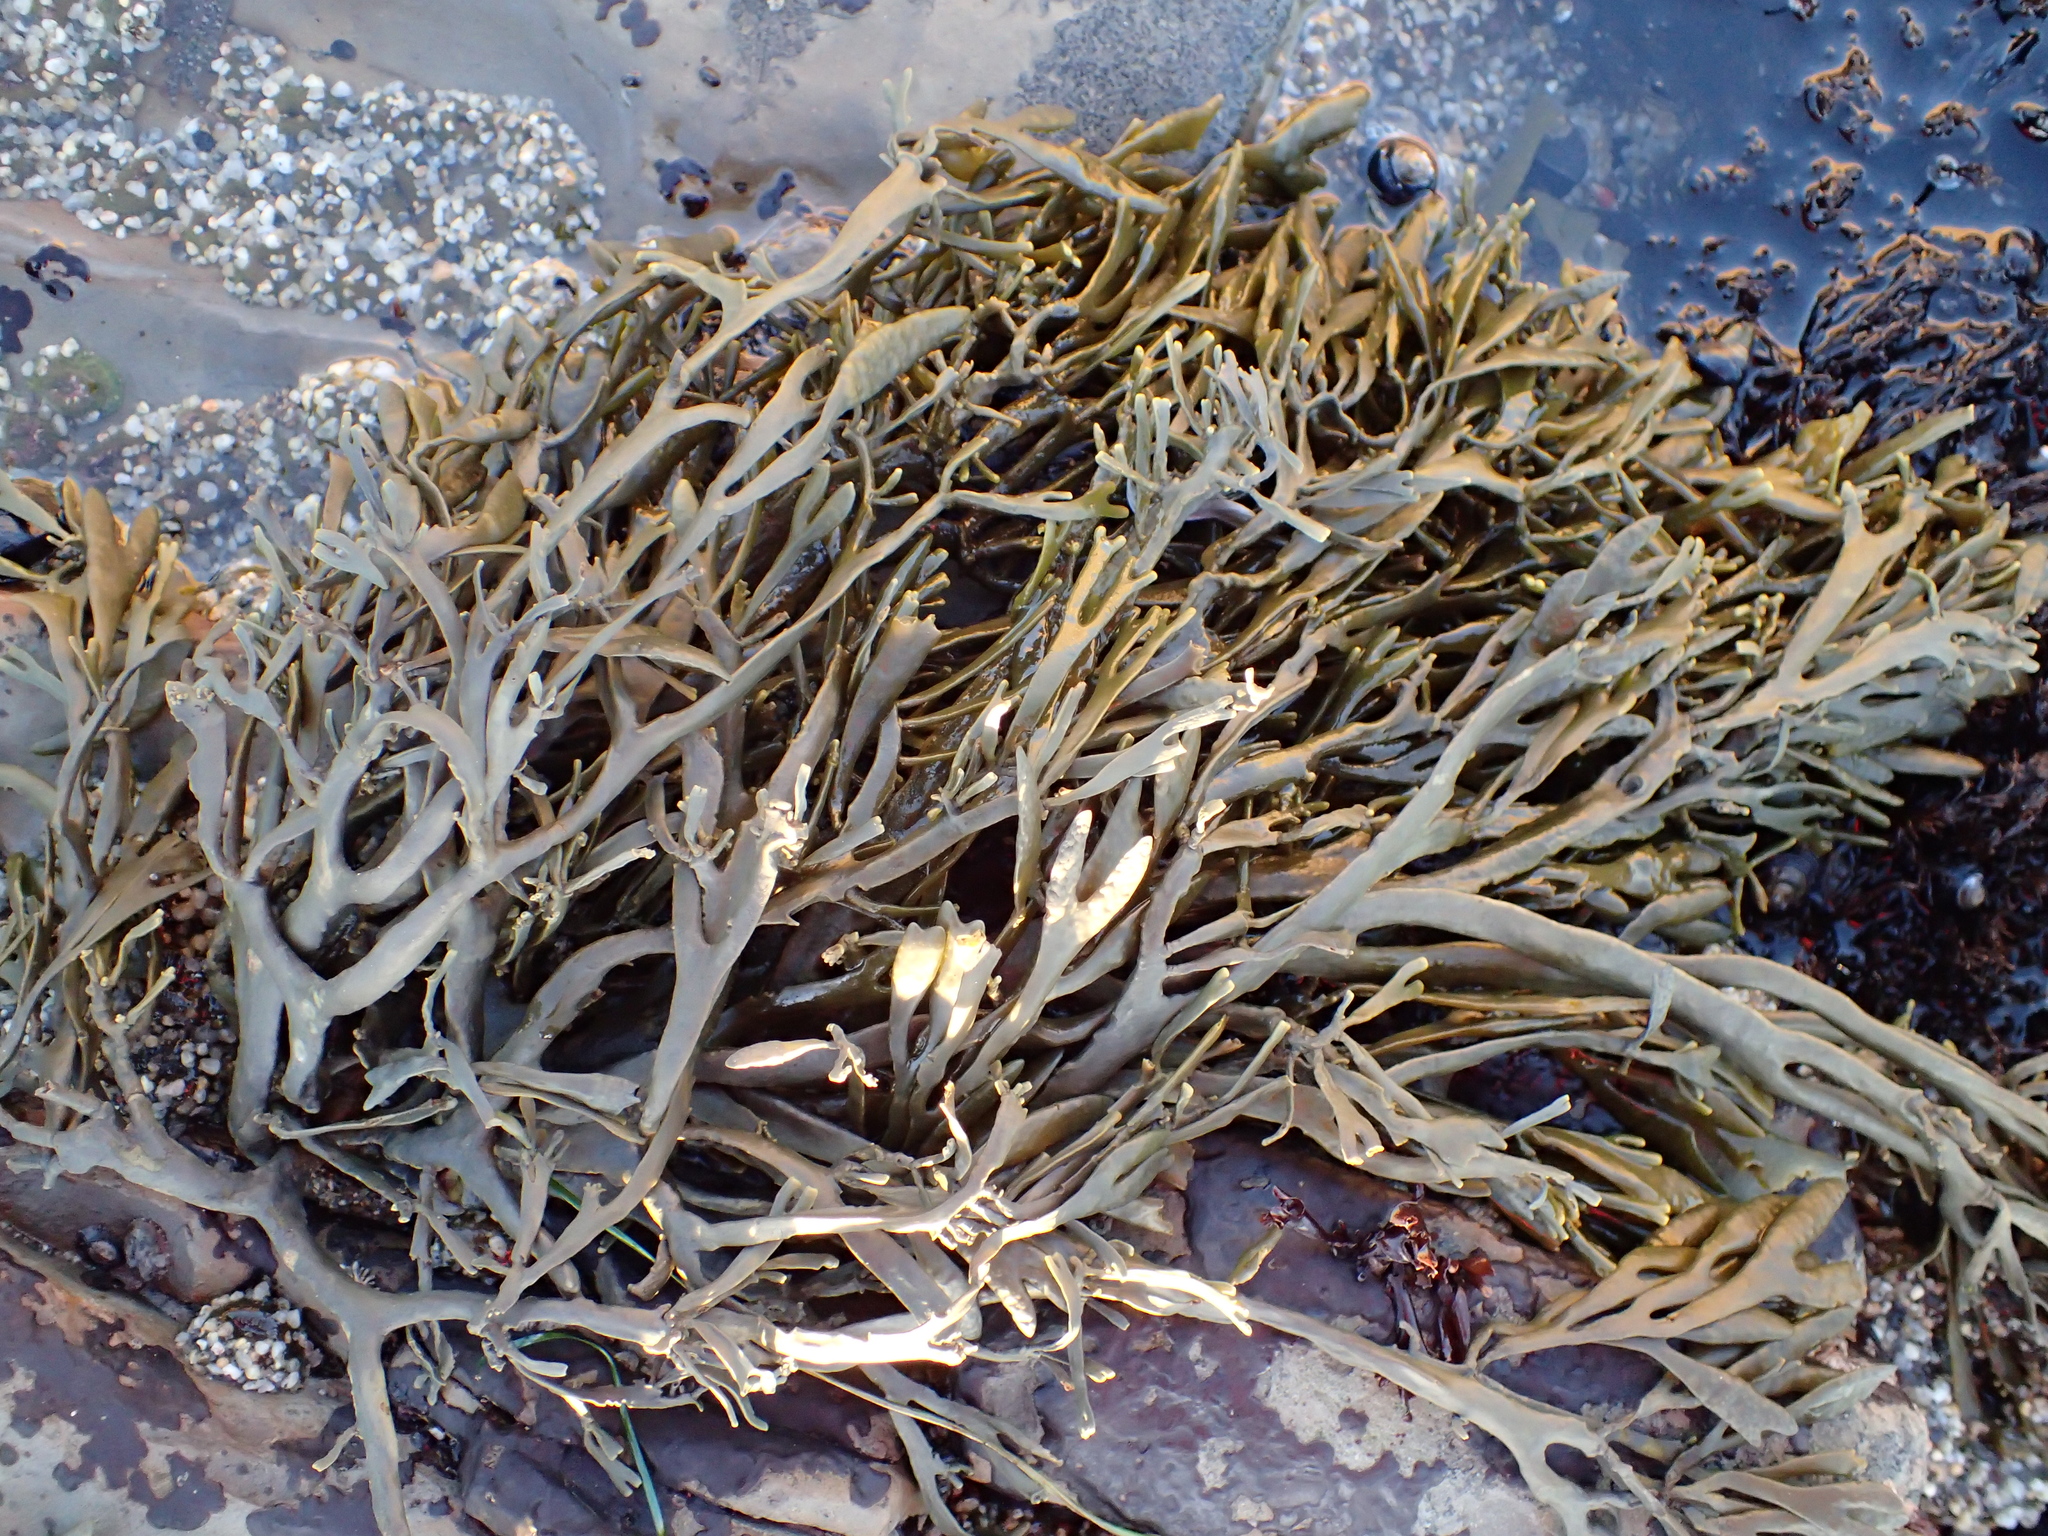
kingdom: Chromista
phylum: Ochrophyta
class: Phaeophyceae
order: Fucales
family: Fucaceae
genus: Silvetia
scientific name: Silvetia
